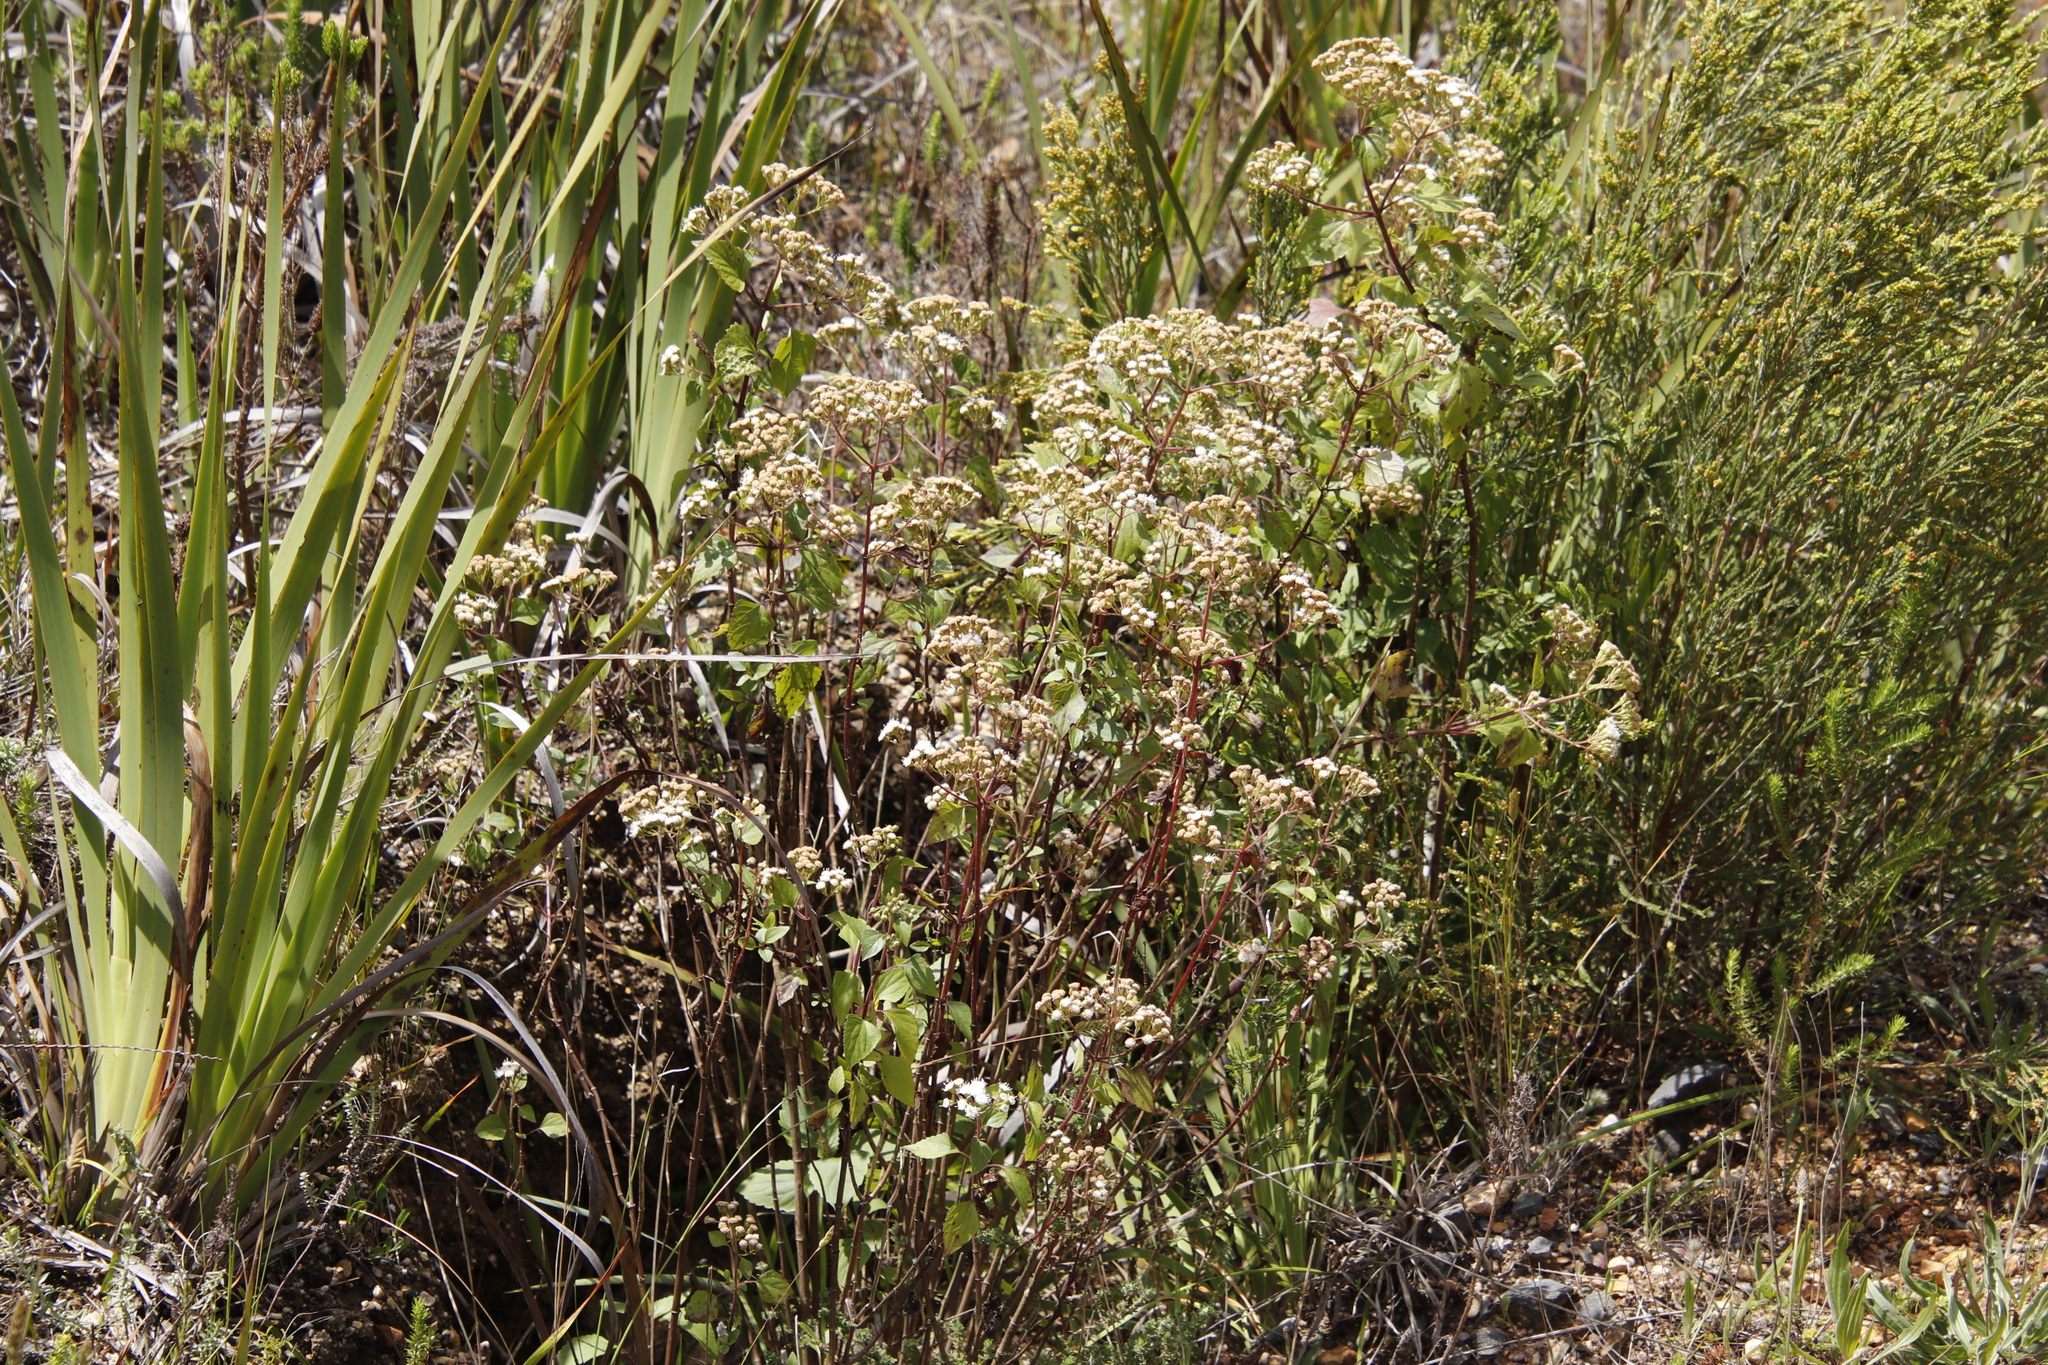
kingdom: Plantae
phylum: Tracheophyta
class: Magnoliopsida
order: Asterales
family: Asteraceae
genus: Ageratina
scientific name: Ageratina adenophora
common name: Sticky snakeroot
